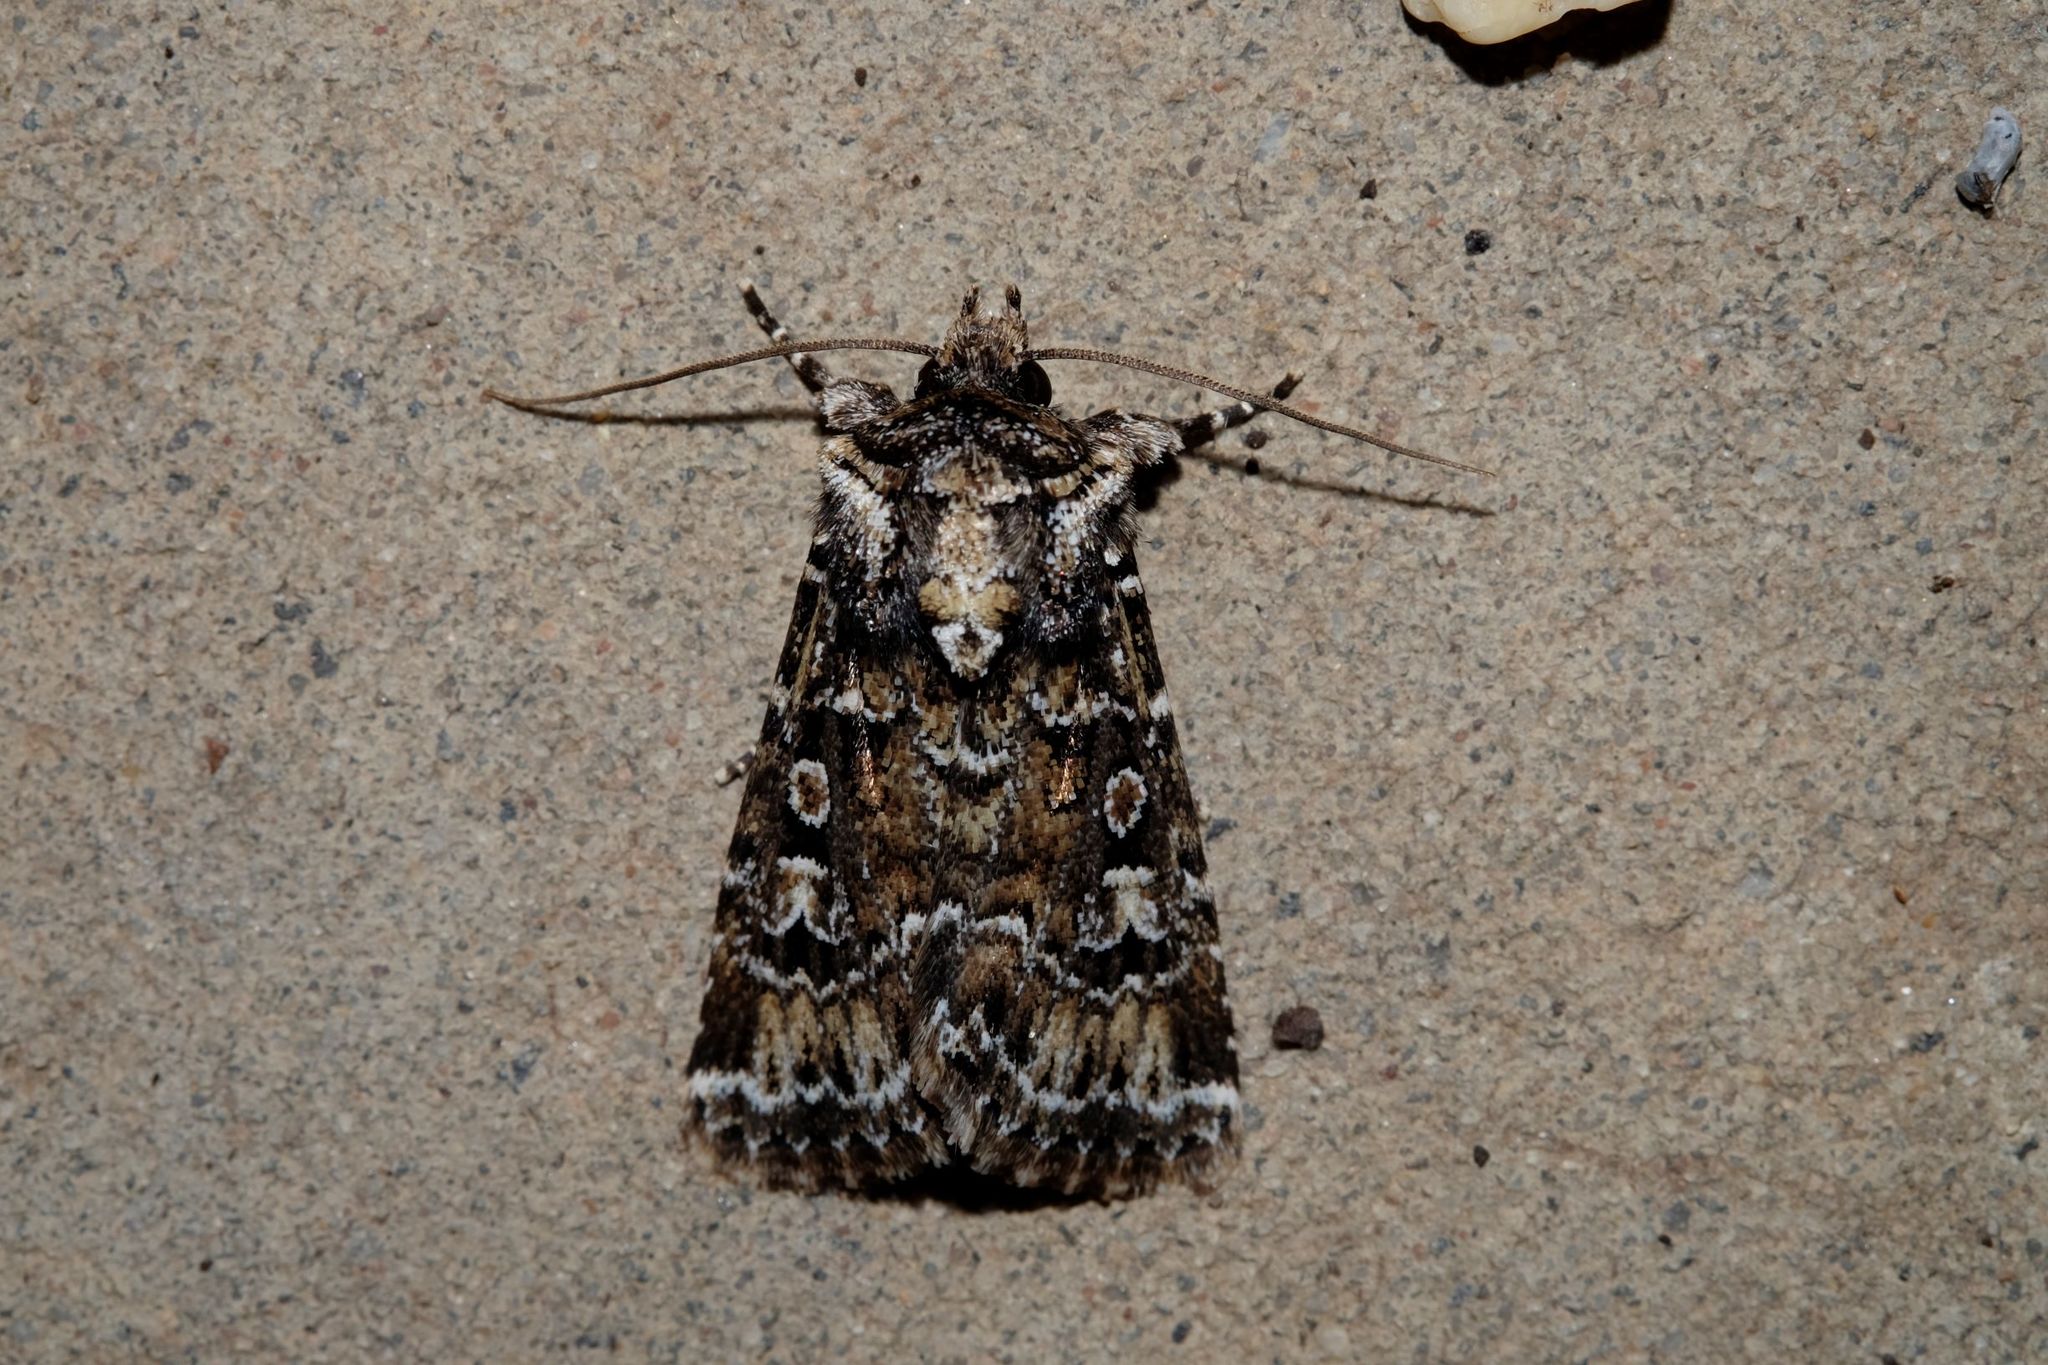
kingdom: Animalia
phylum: Arthropoda
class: Insecta
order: Lepidoptera
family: Noctuidae
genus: Ectopatria
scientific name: Ectopatria horologa
